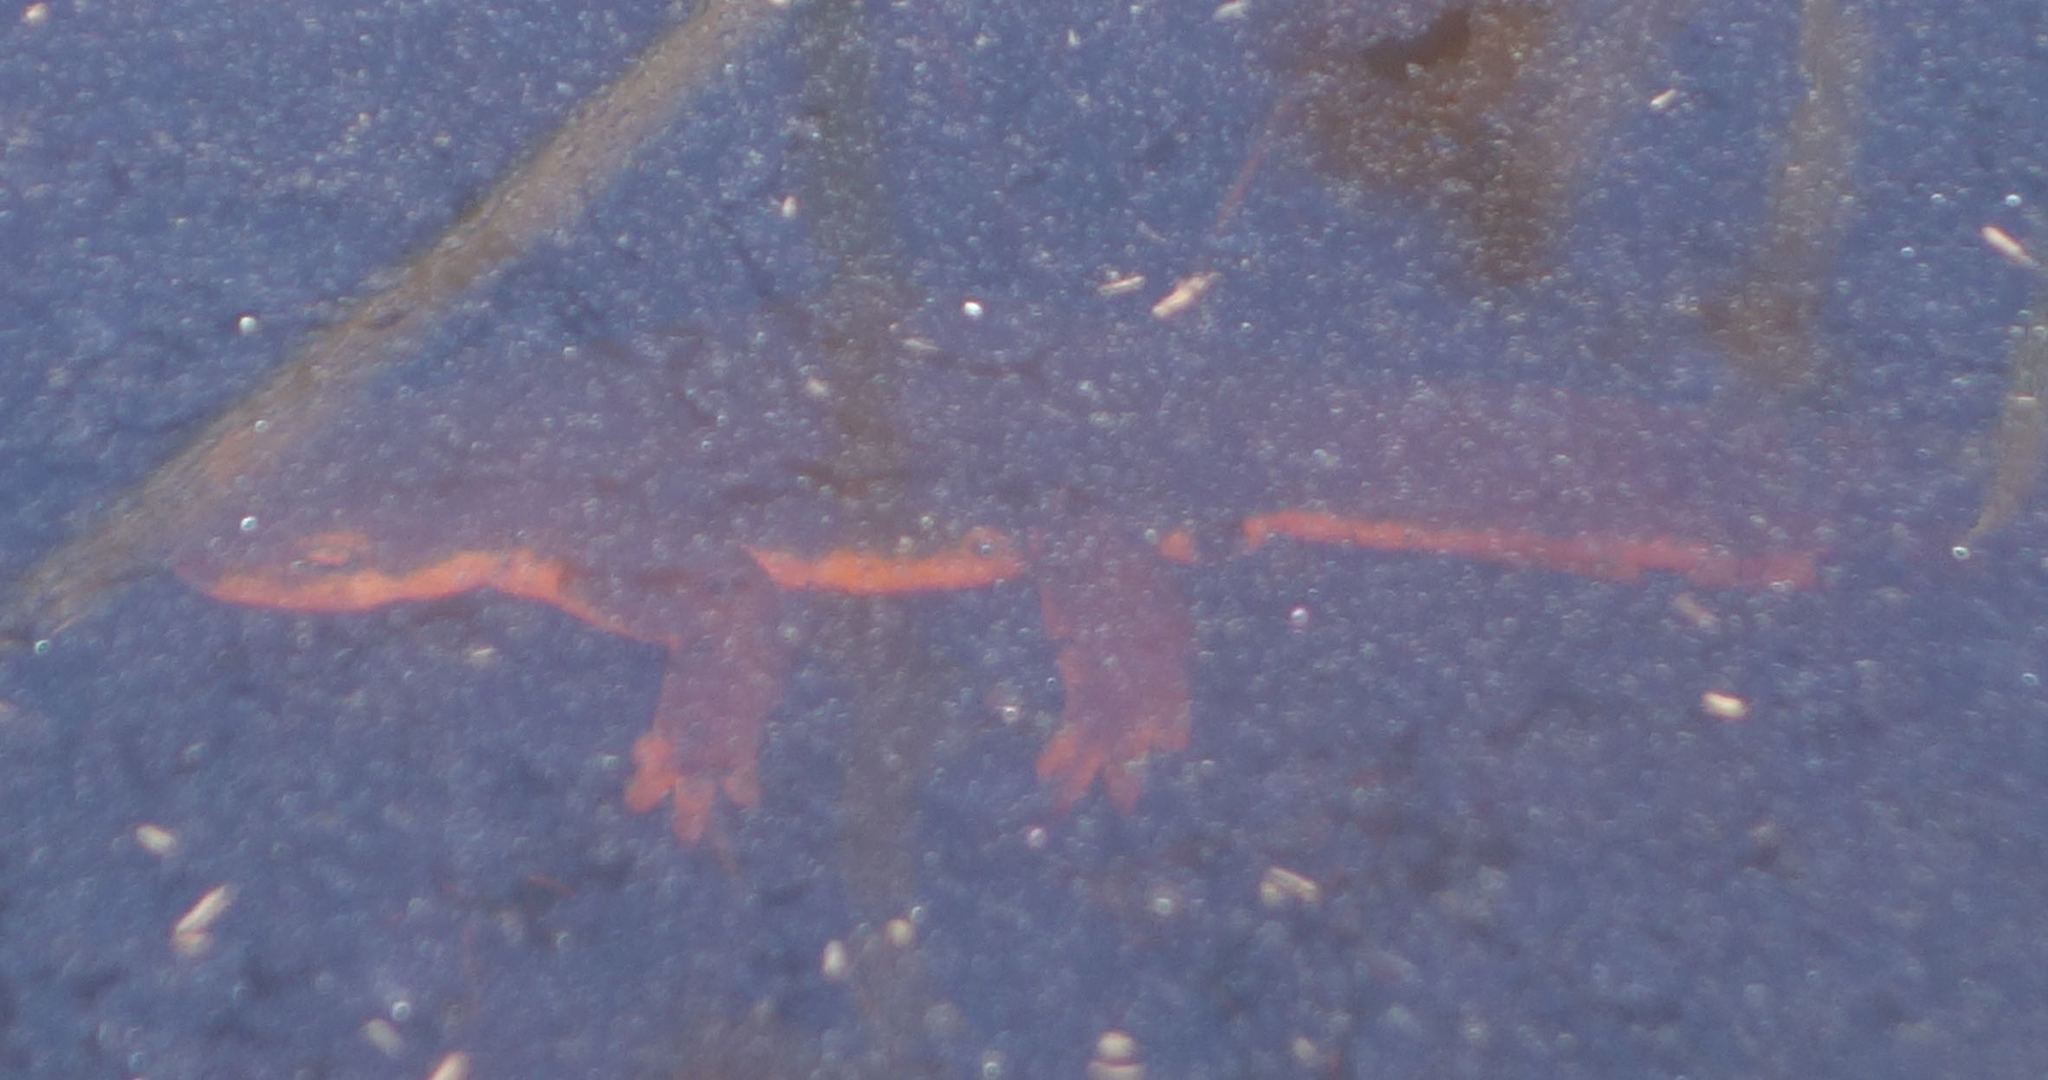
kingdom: Animalia
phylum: Chordata
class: Amphibia
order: Caudata
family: Salamandridae
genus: Taricha
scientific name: Taricha torosa
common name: California newt
